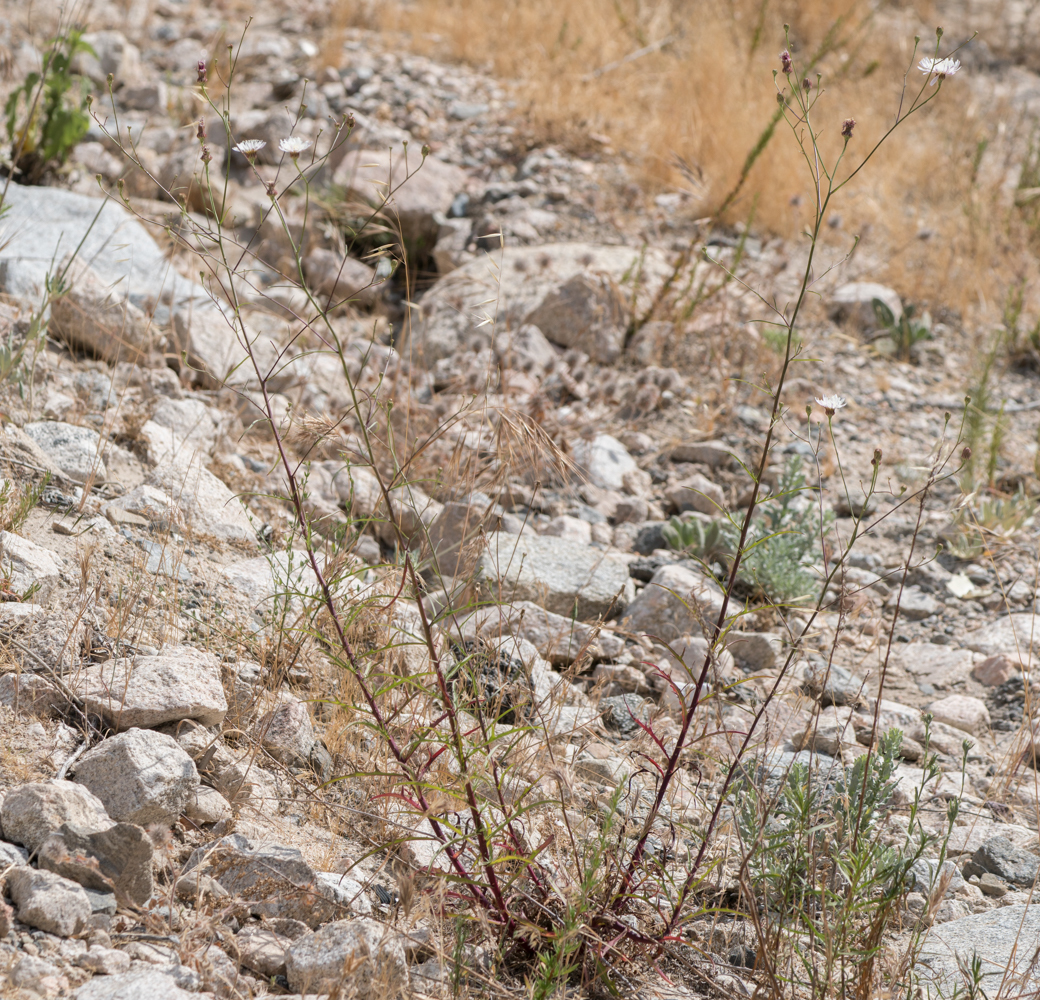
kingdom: Plantae
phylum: Tracheophyta
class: Magnoliopsida
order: Asterales
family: Asteraceae
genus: Malacothrix
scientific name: Malacothrix saxatilis
